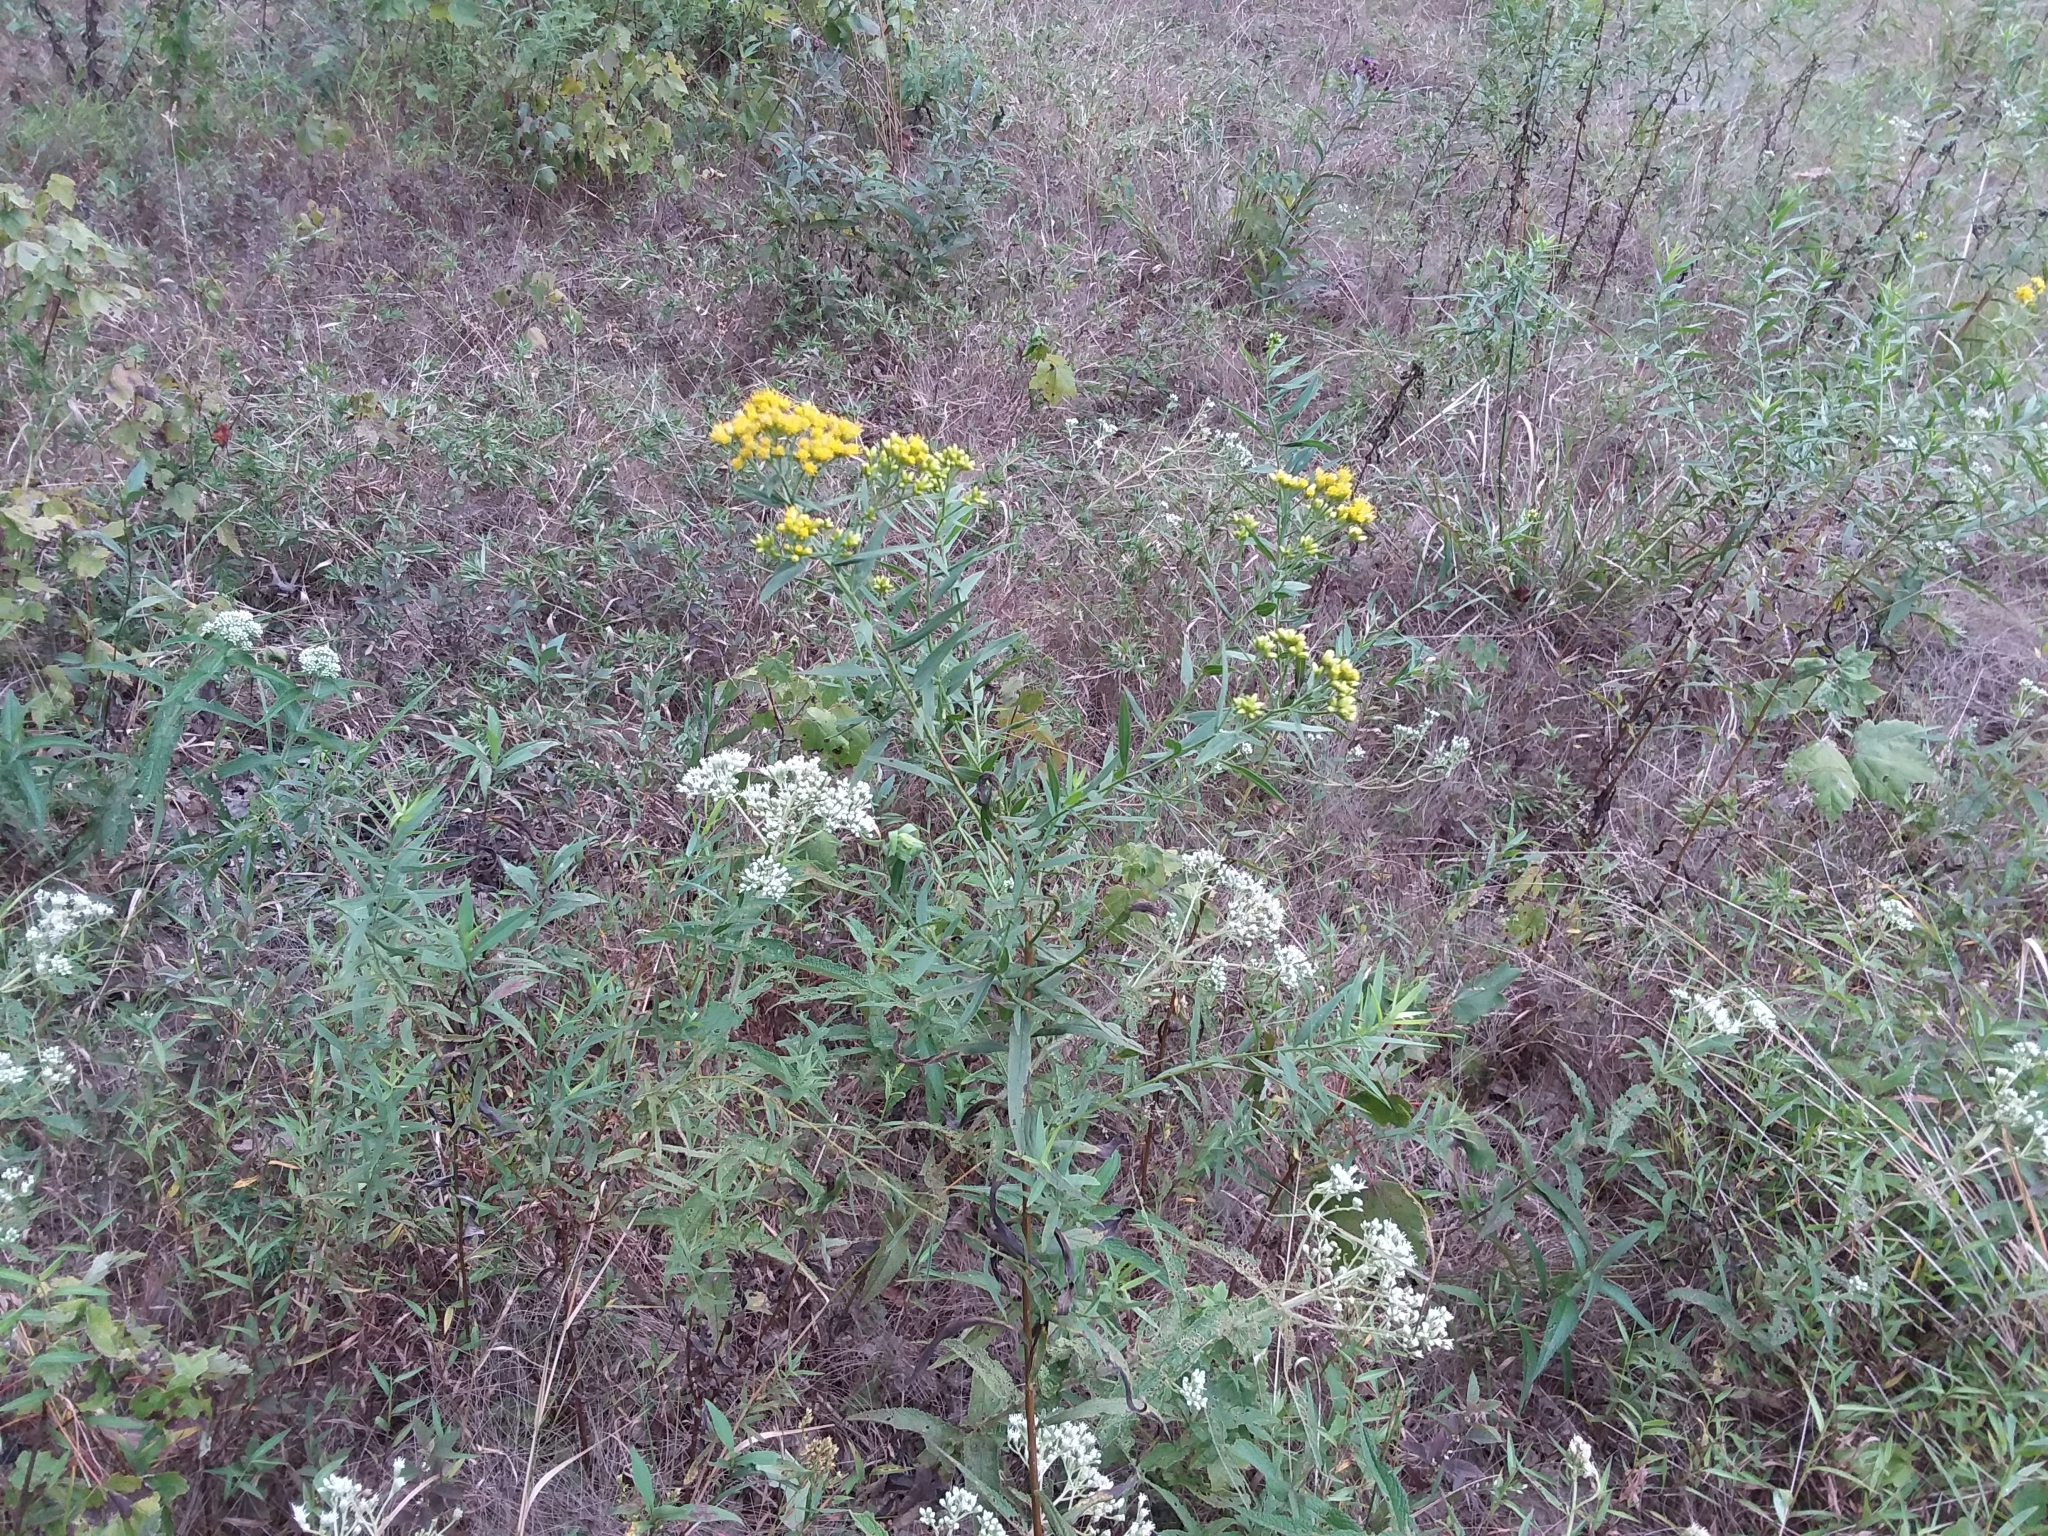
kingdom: Plantae
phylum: Tracheophyta
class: Magnoliopsida
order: Asterales
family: Asteraceae
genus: Euthamia
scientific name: Euthamia graminifolia
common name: Common goldentop
